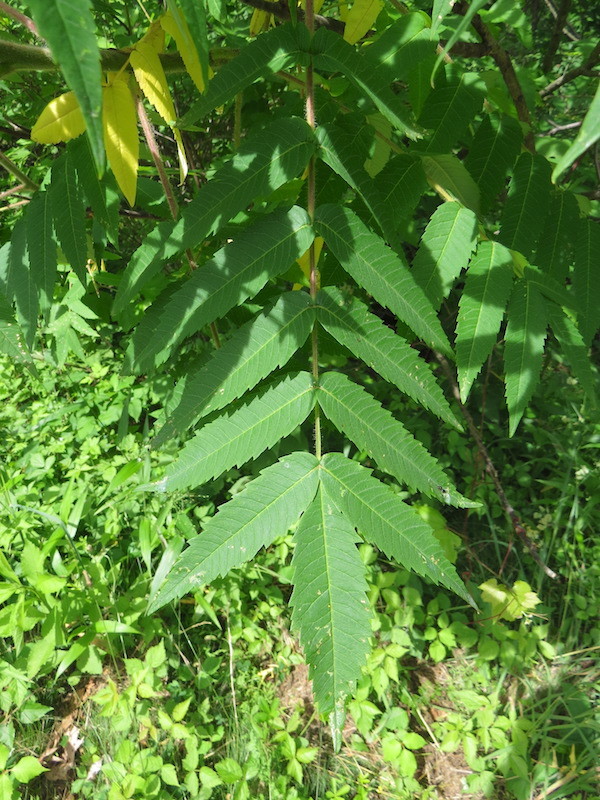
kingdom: Plantae
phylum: Tracheophyta
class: Magnoliopsida
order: Sapindales
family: Anacardiaceae
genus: Rhus
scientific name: Rhus typhina
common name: Staghorn sumac
